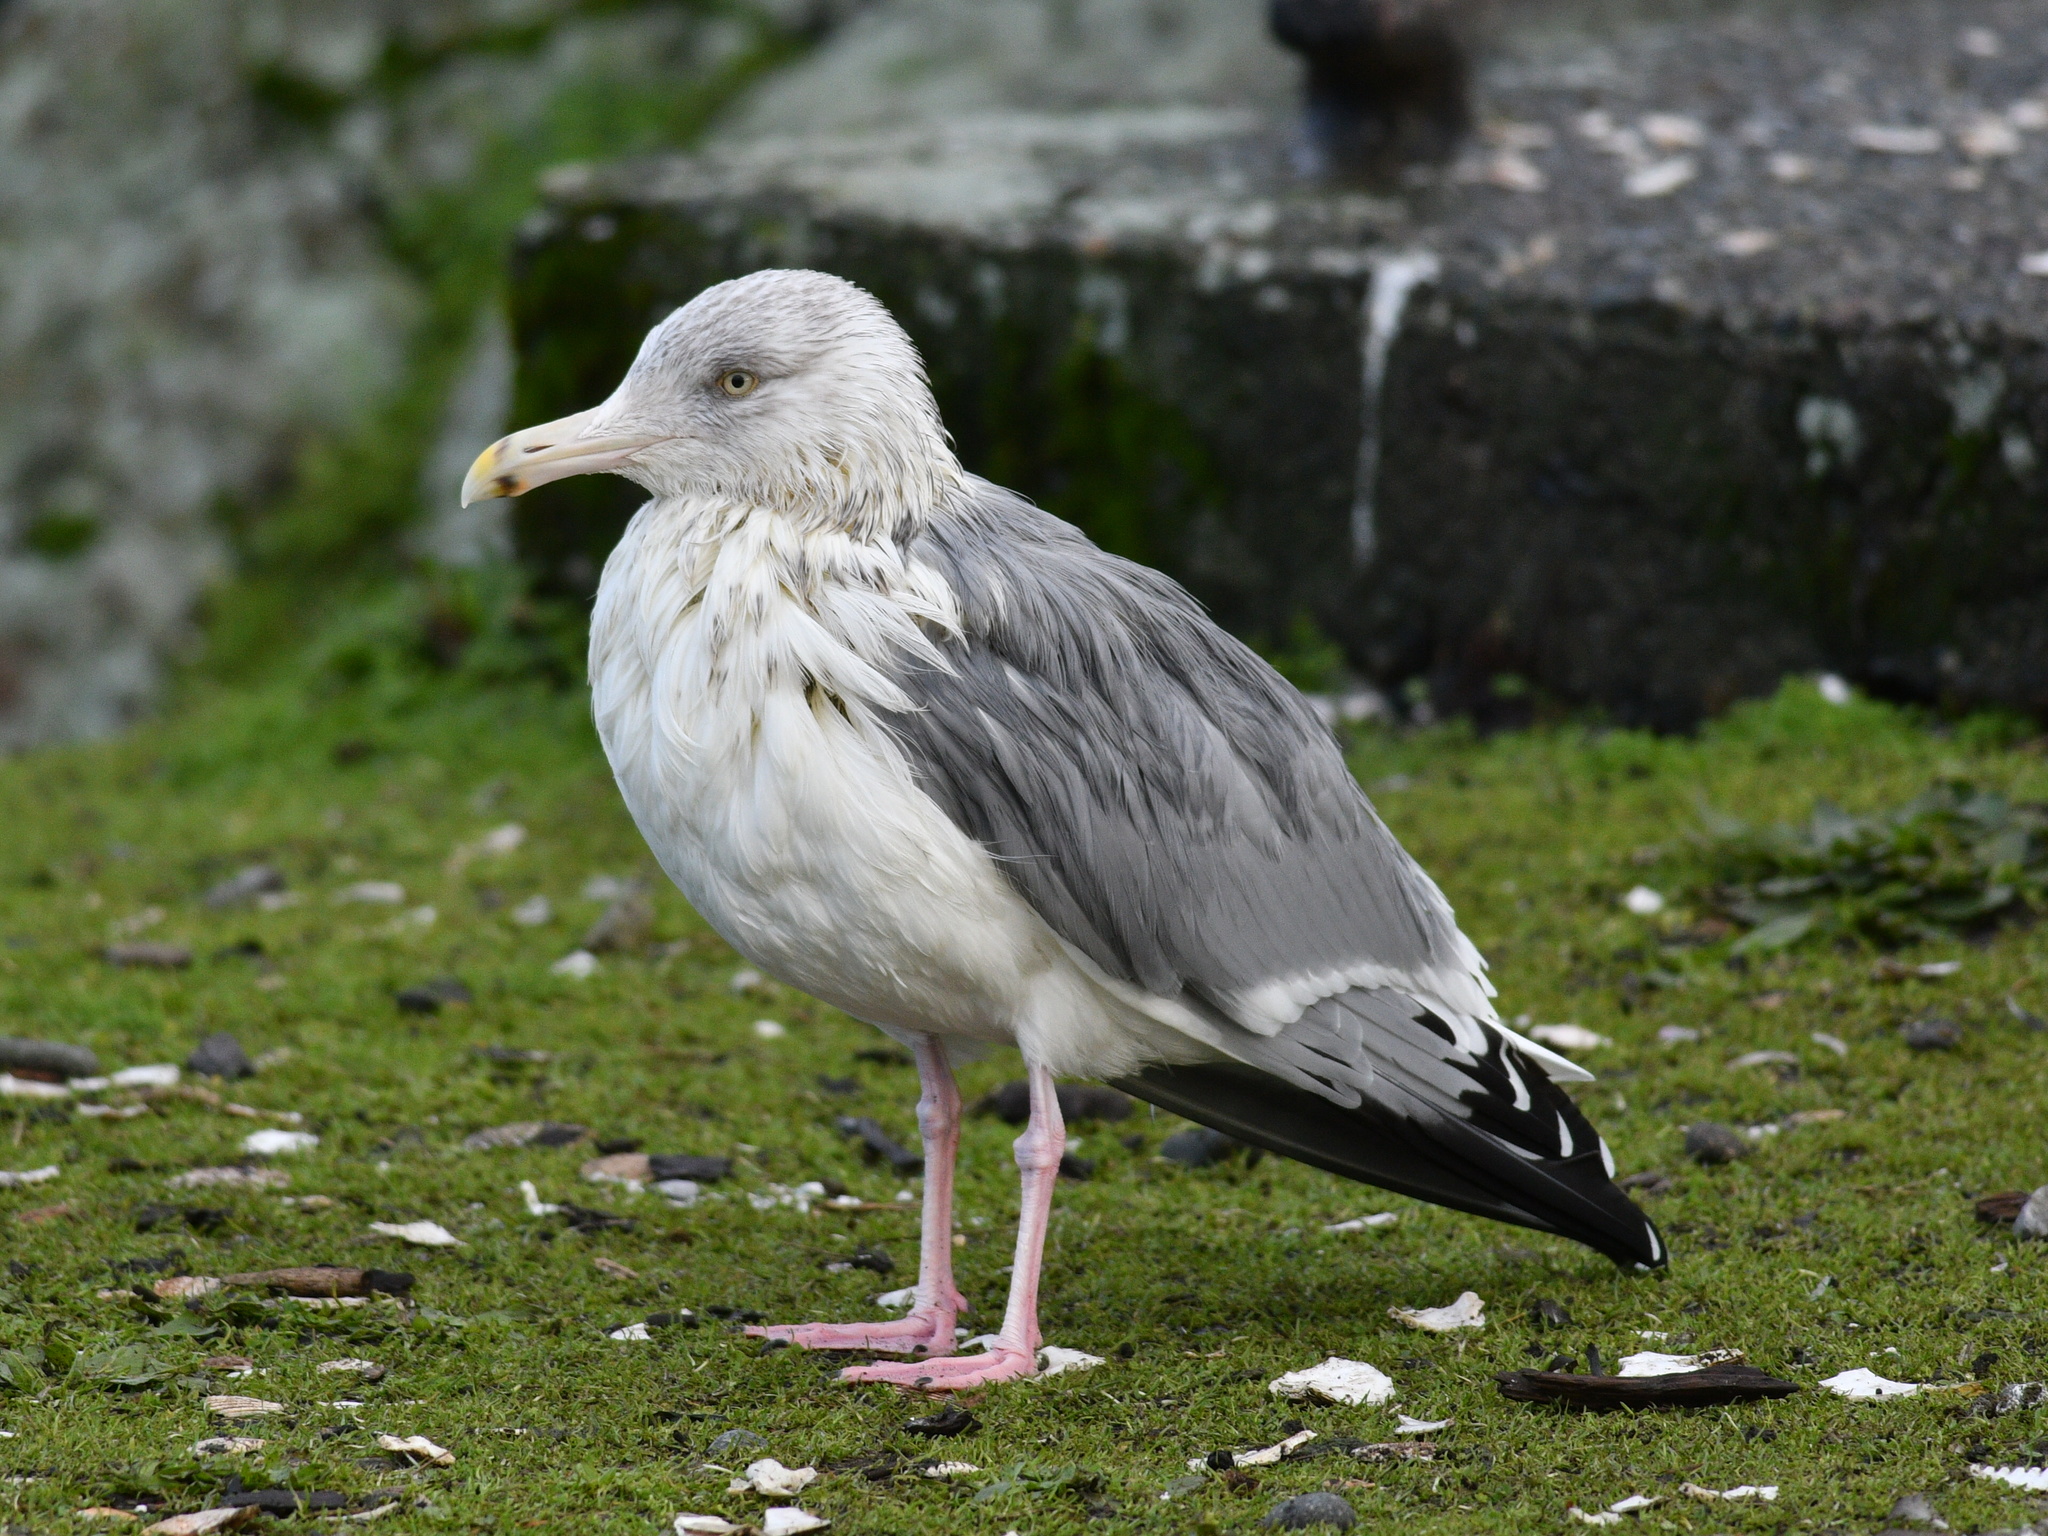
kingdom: Animalia
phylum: Chordata
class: Aves
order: Charadriiformes
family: Laridae
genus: Larus
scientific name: Larus argentatus
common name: Herring gull
